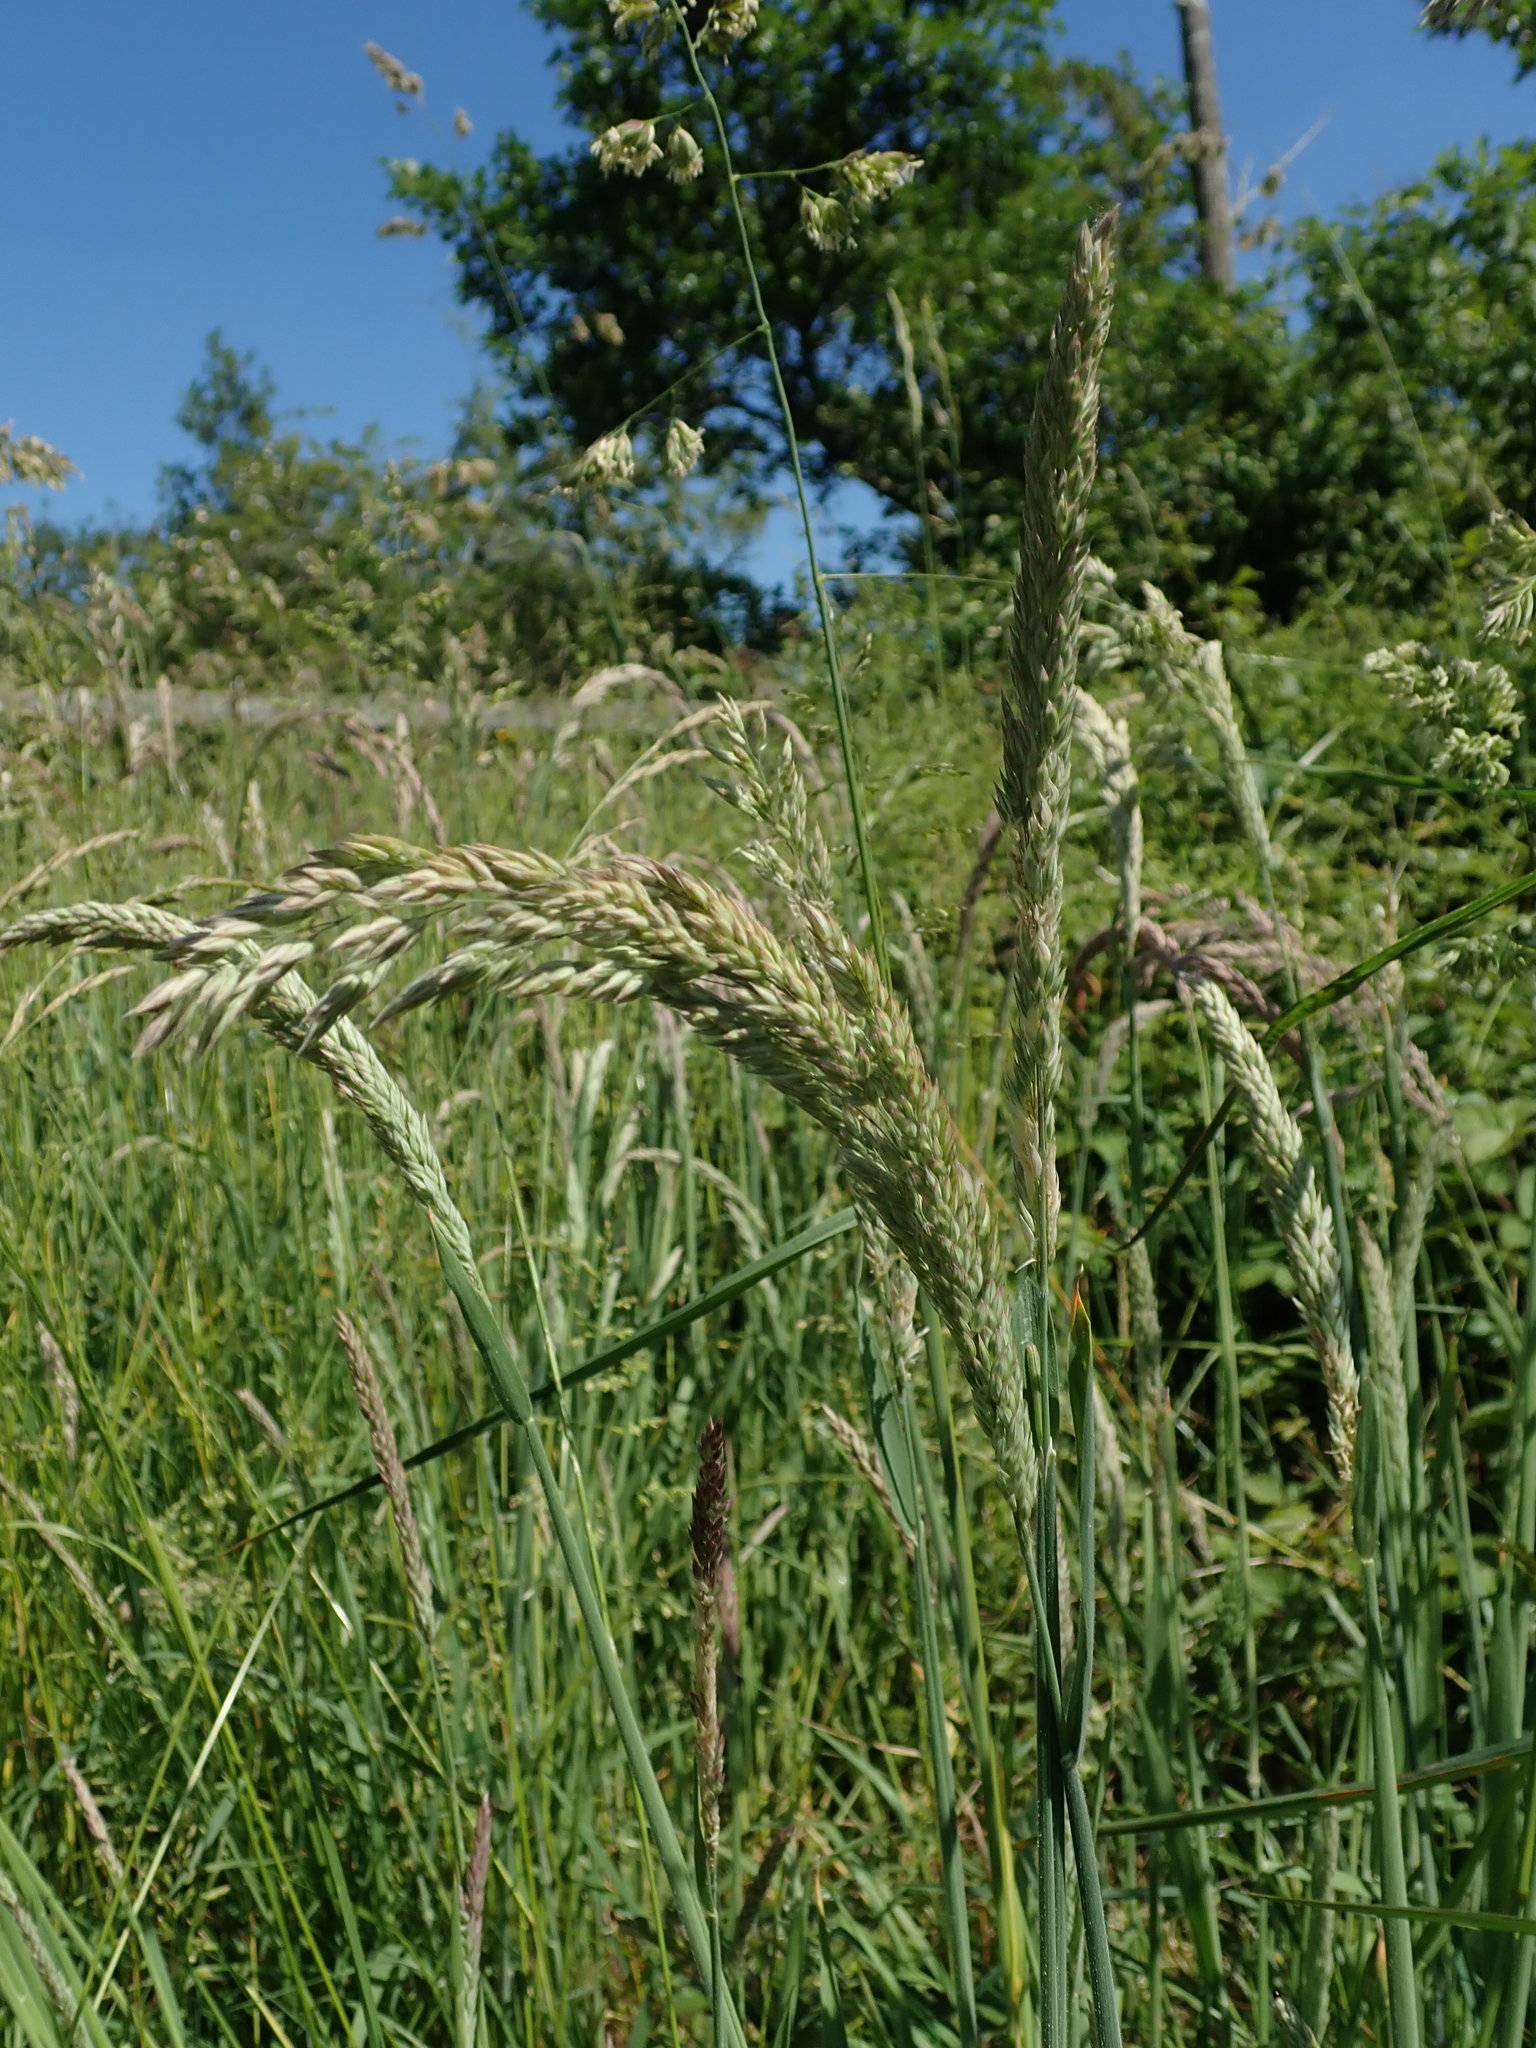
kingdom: Plantae
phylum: Tracheophyta
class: Liliopsida
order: Poales
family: Poaceae
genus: Holcus
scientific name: Holcus lanatus
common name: Yorkshire-fog
